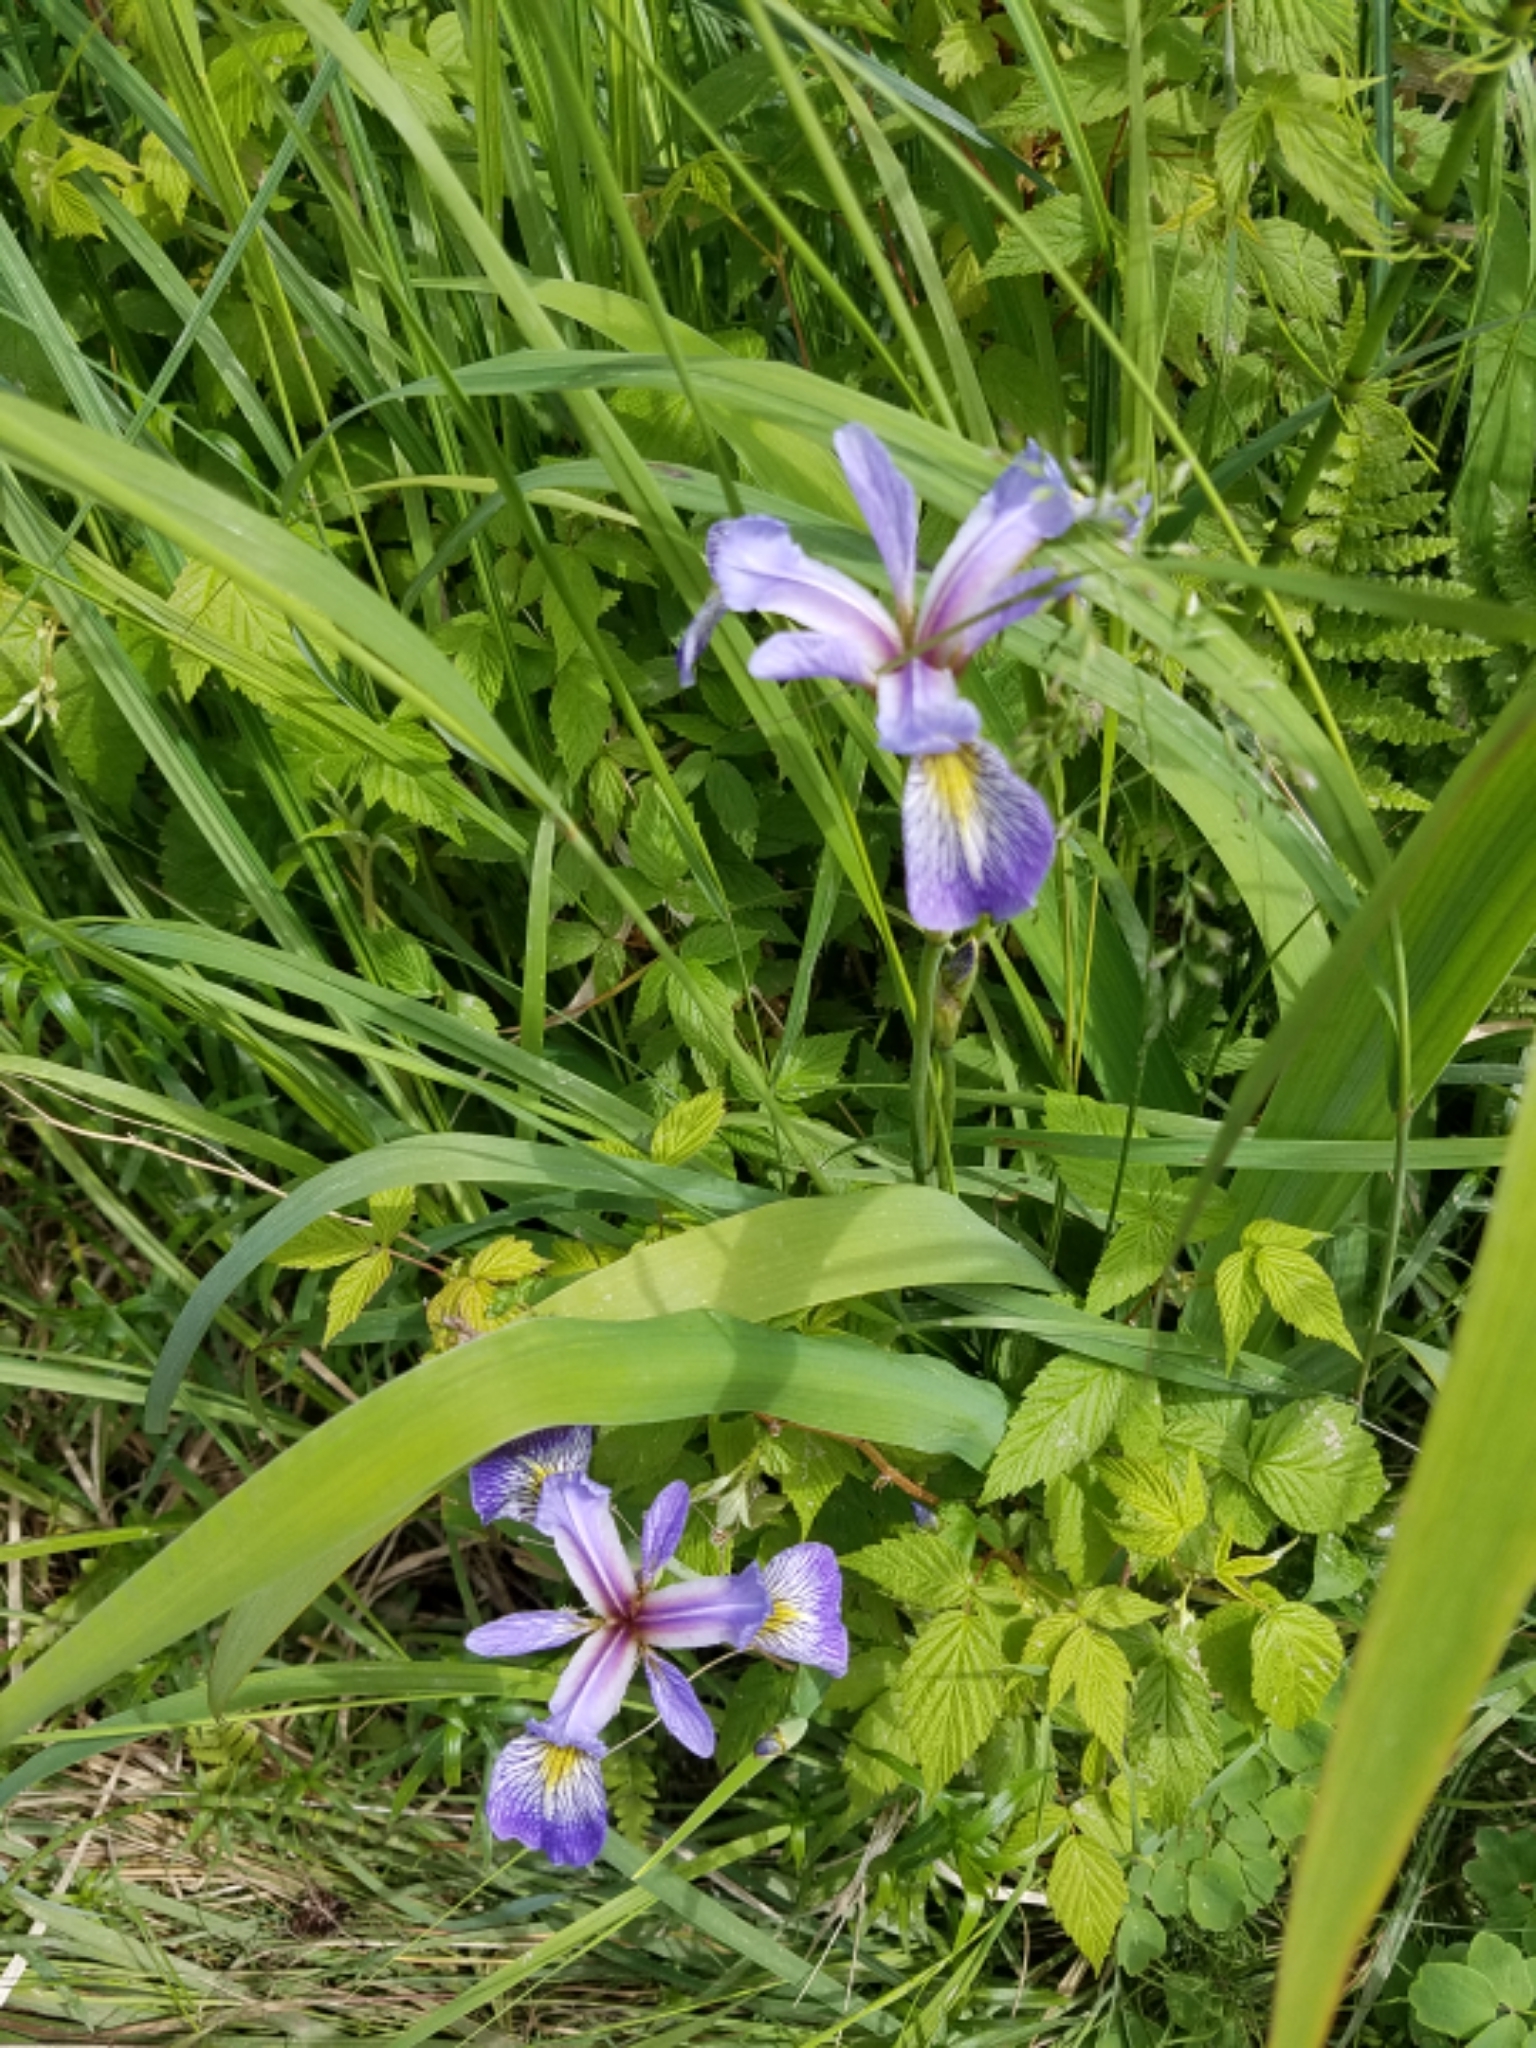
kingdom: Plantae
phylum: Tracheophyta
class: Liliopsida
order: Asparagales
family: Iridaceae
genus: Iris
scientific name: Iris versicolor
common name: Purple iris
